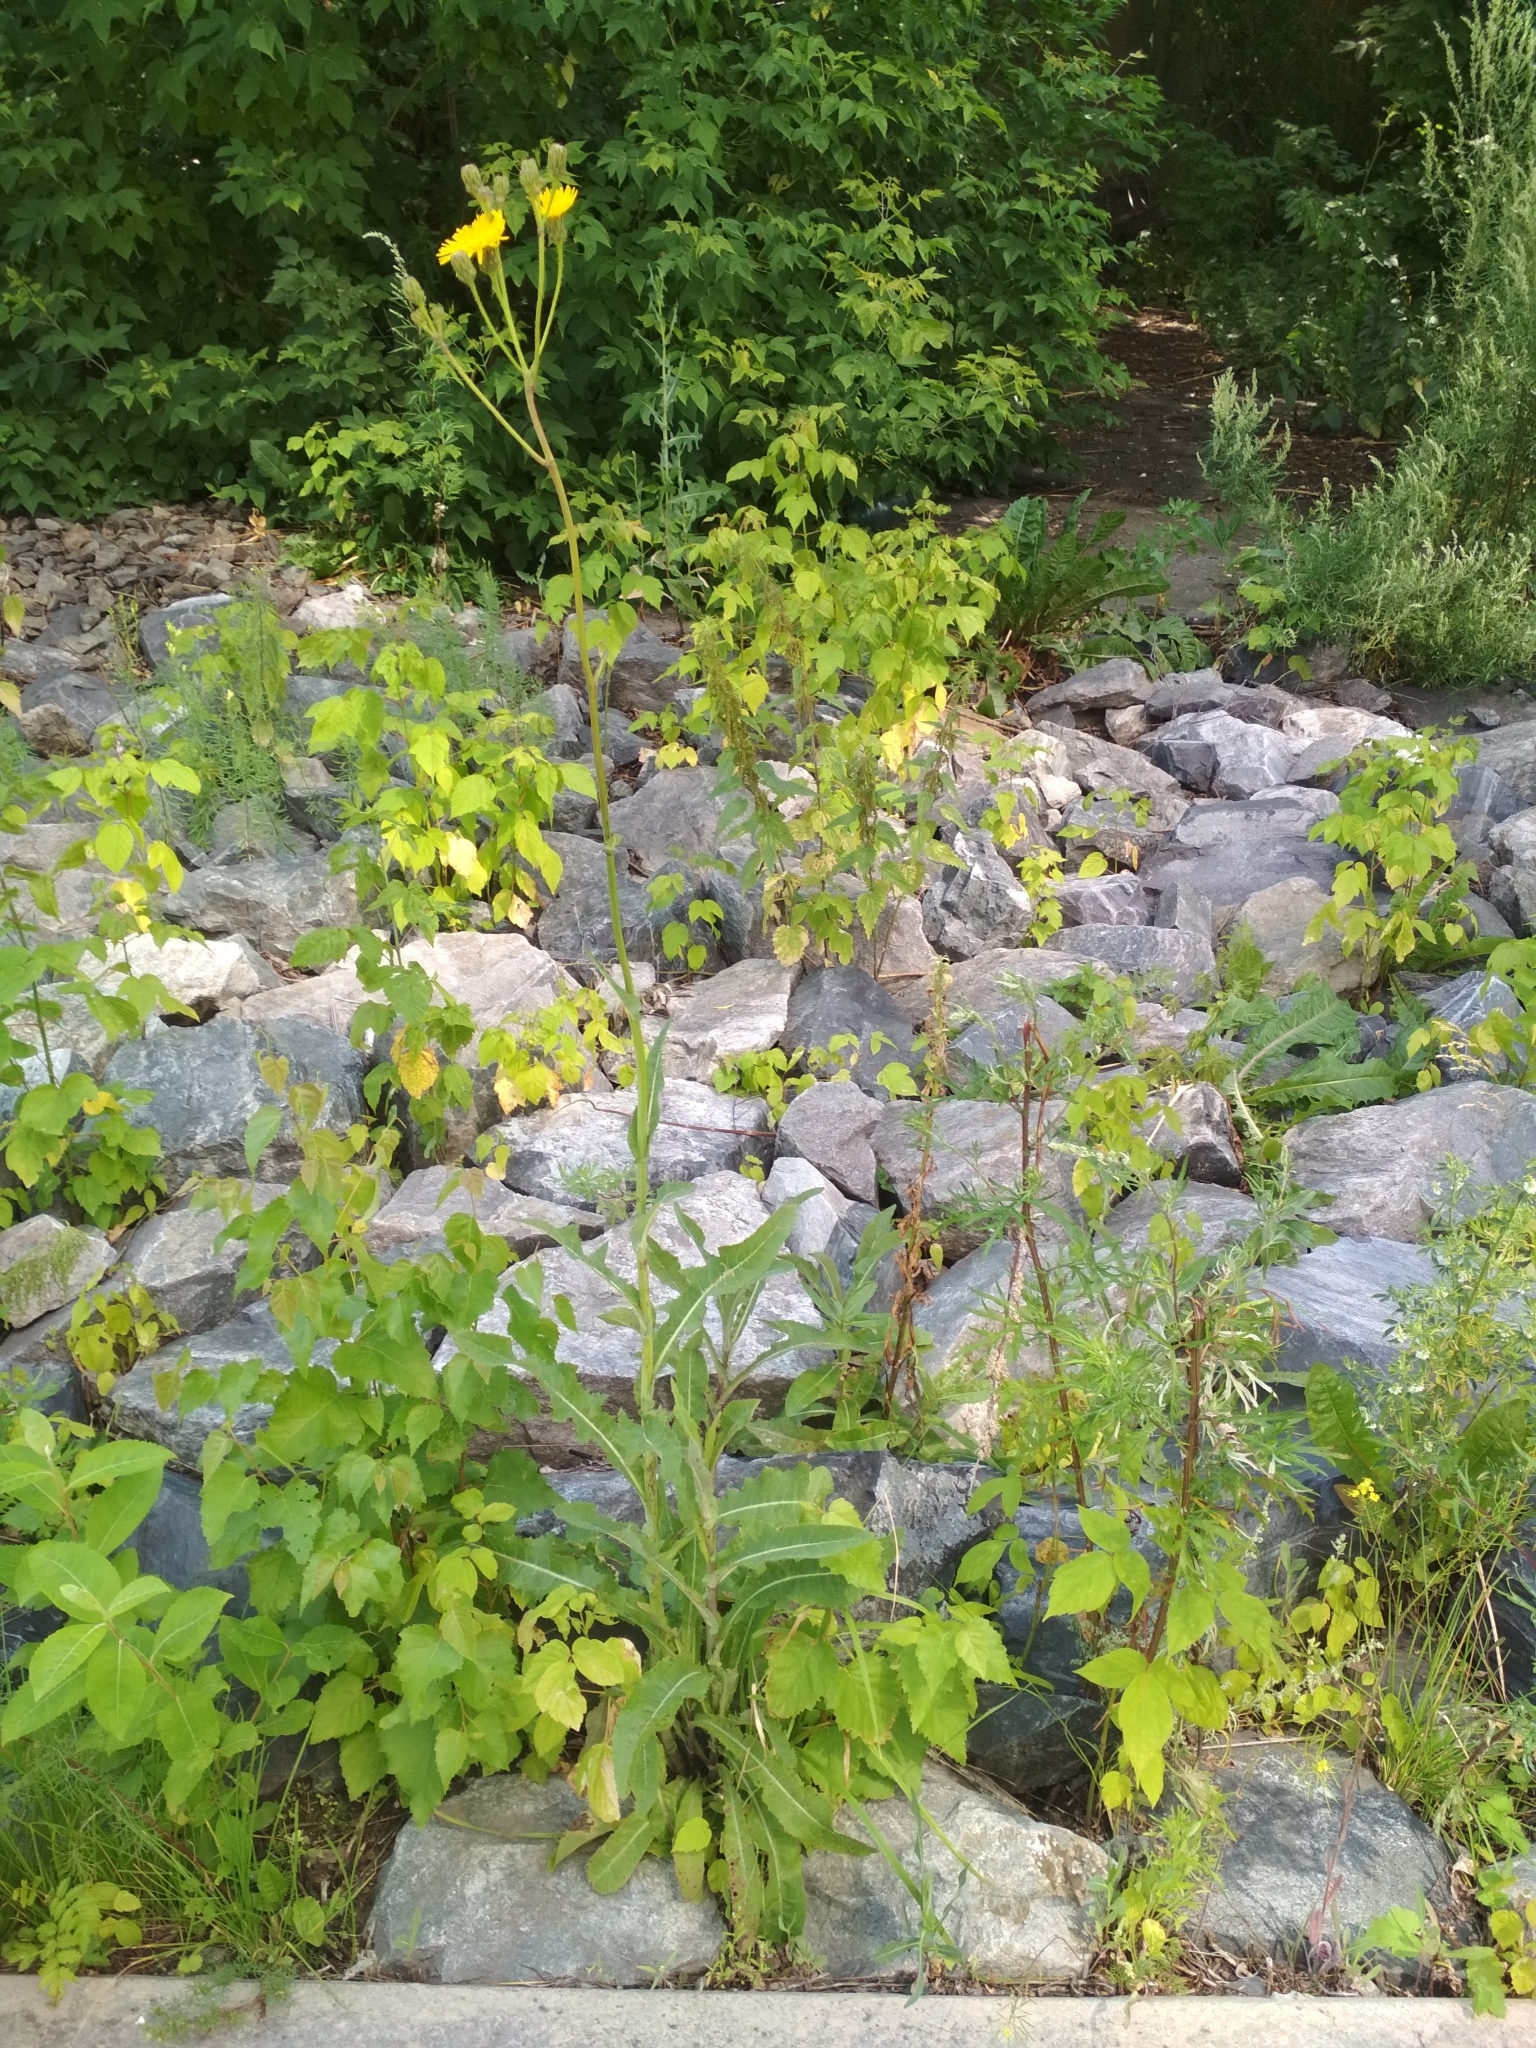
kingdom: Plantae
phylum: Tracheophyta
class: Magnoliopsida
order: Asterales
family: Asteraceae
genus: Sonchus
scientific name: Sonchus arvensis
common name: Perennial sow-thistle
